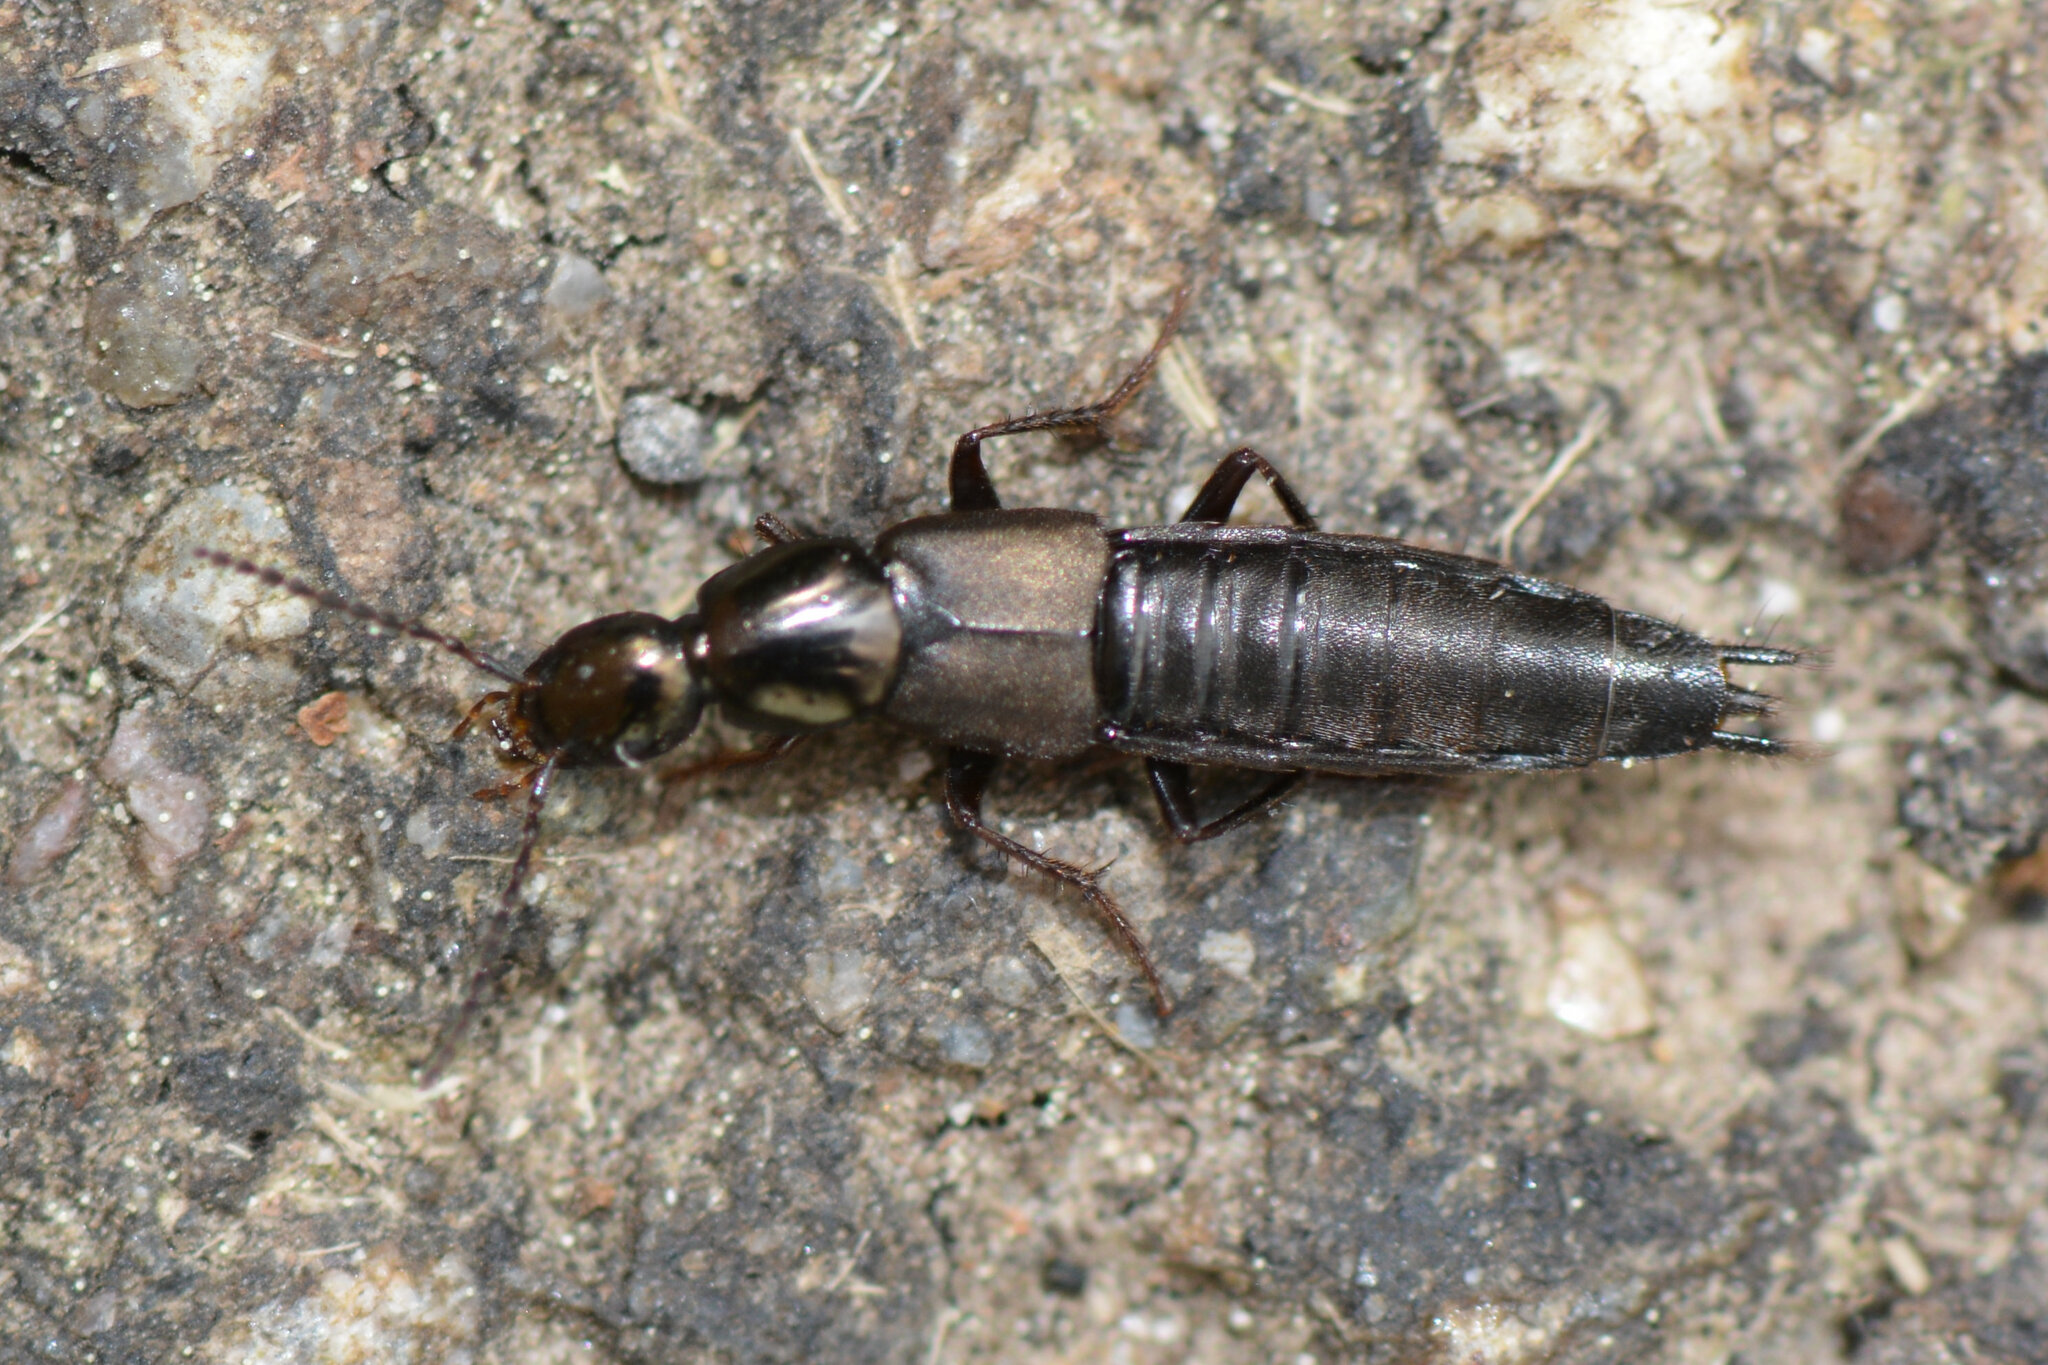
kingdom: Animalia
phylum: Arthropoda
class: Insecta
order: Coleoptera
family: Staphylinidae
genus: Philonthus
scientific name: Philonthus decorus
